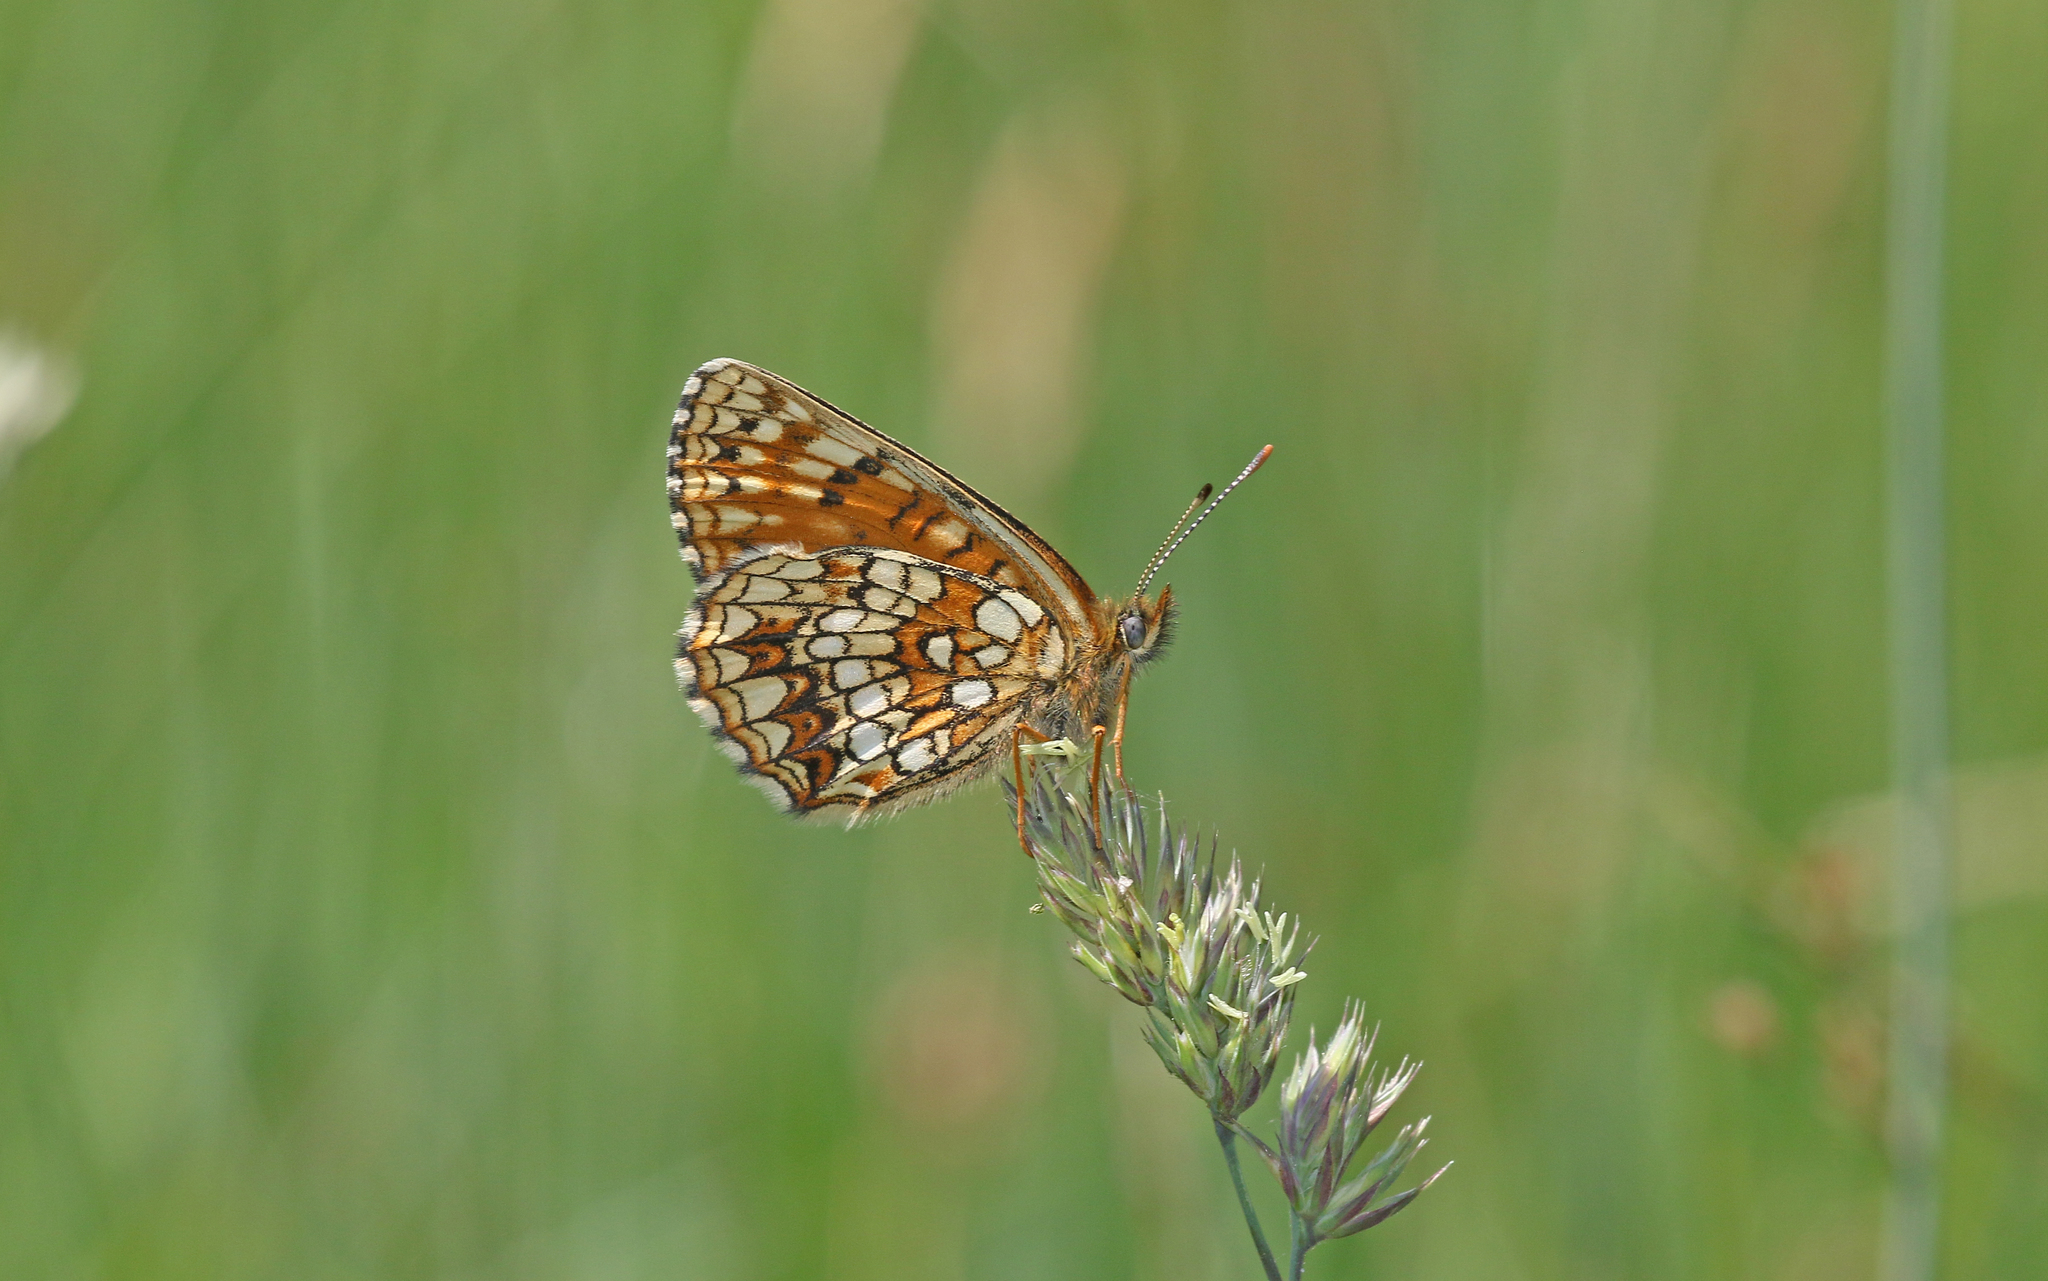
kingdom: Animalia
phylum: Arthropoda
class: Insecta
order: Lepidoptera
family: Nymphalidae
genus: Melitaea
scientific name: Melitaea diamina
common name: False heath fritillary
